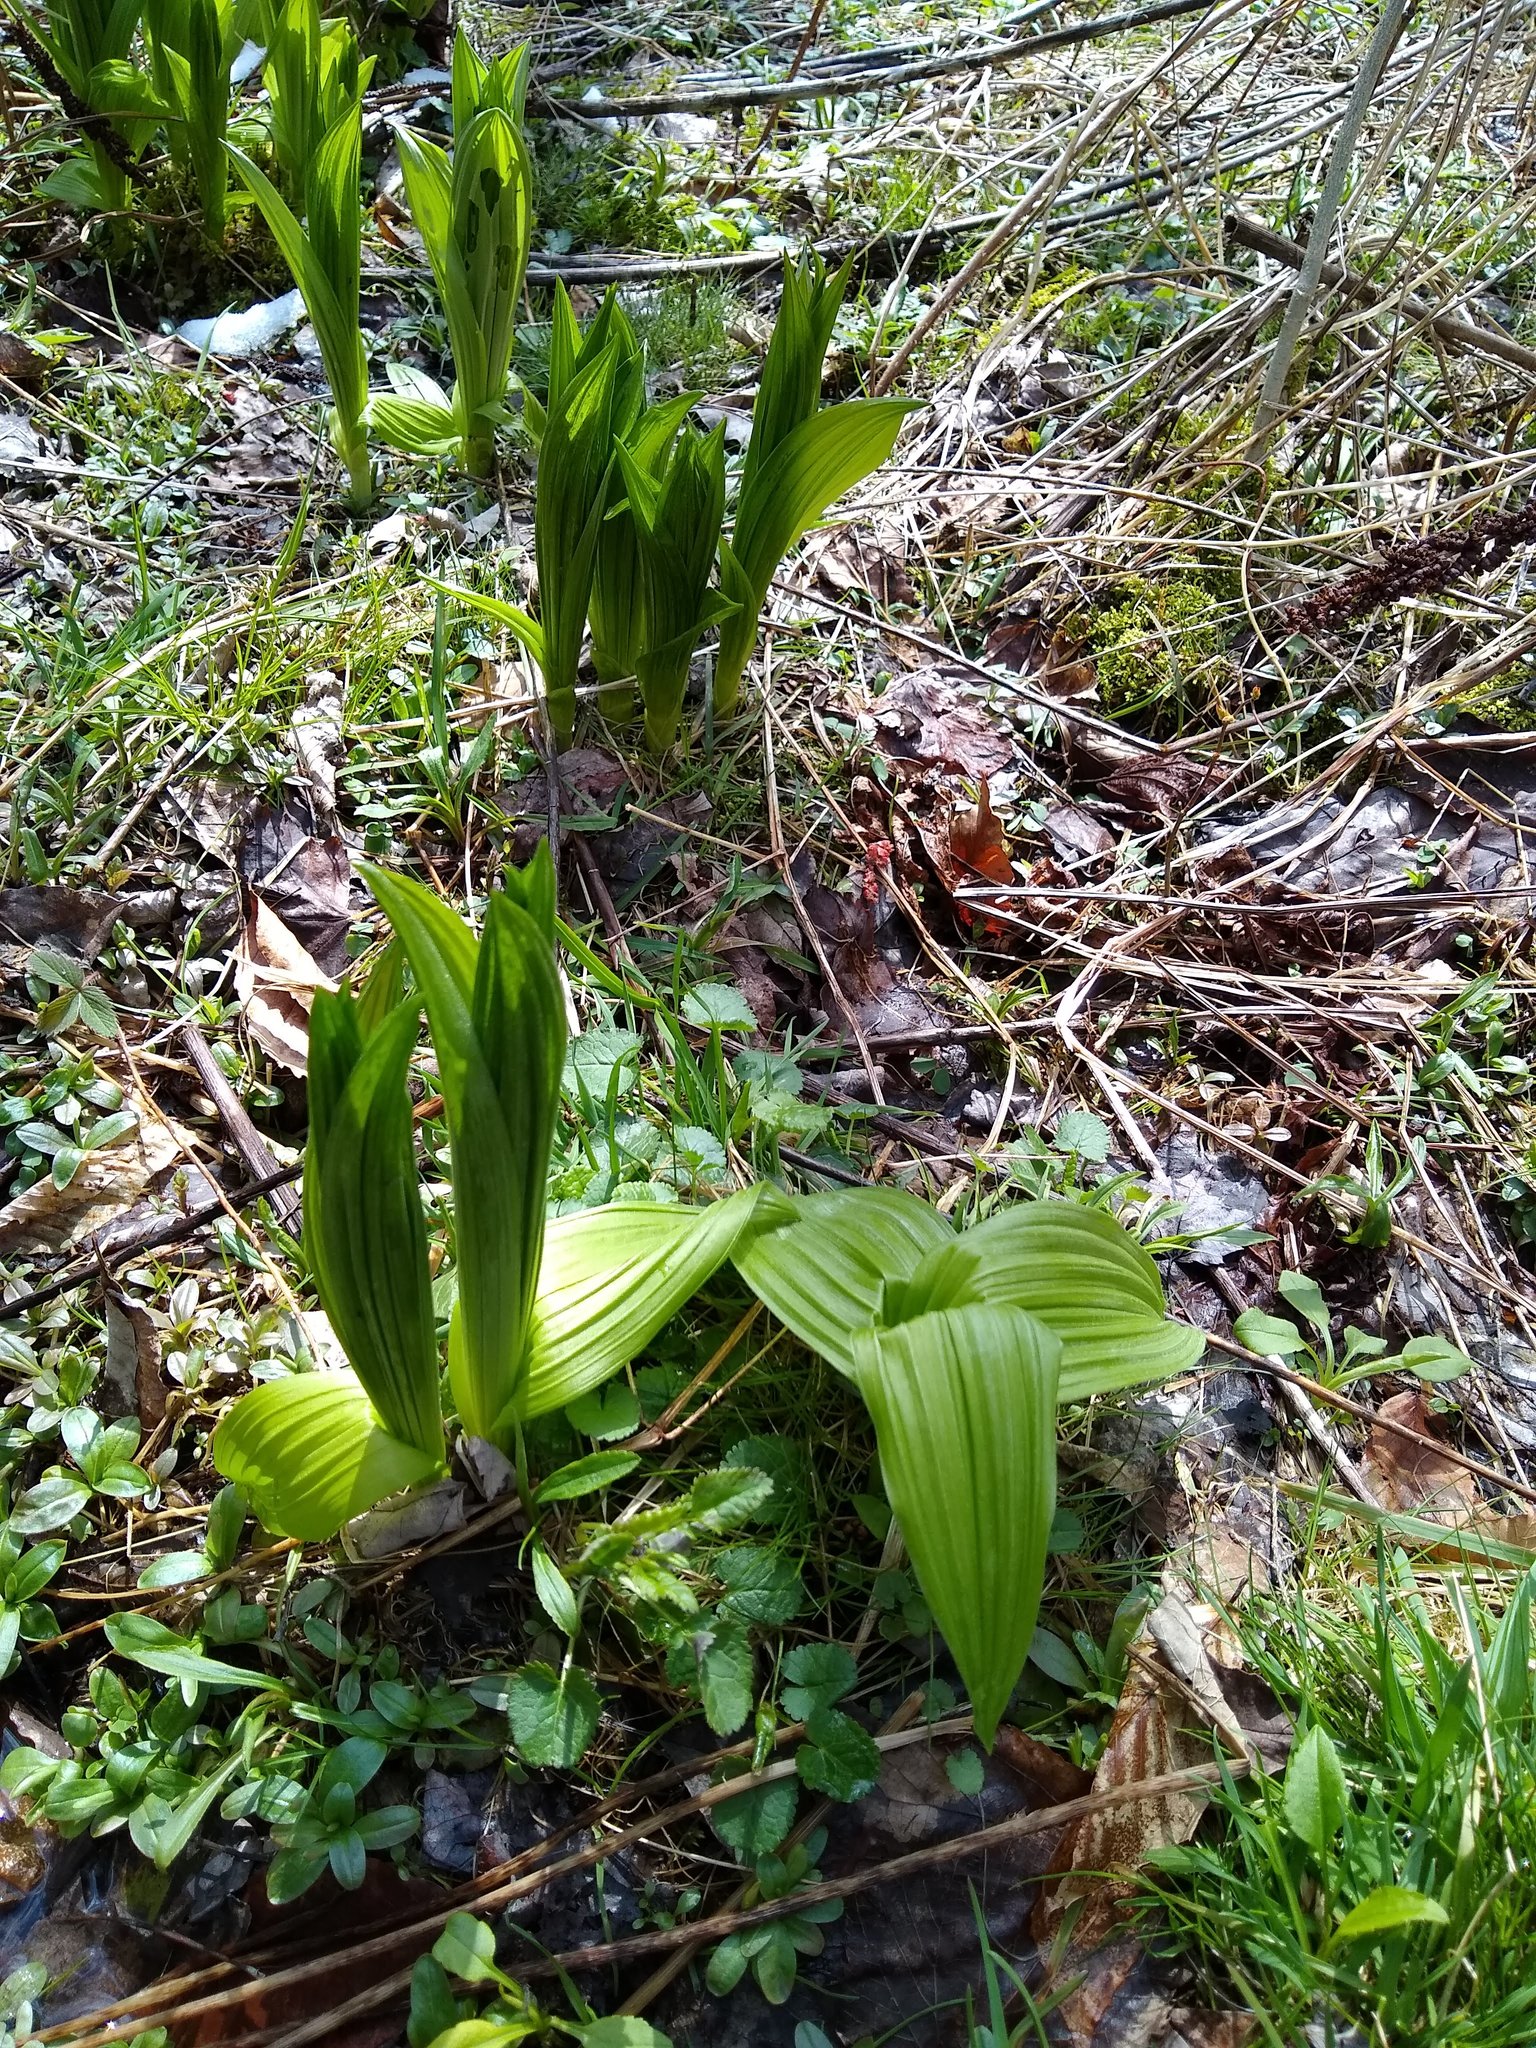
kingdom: Plantae
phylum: Tracheophyta
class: Liliopsida
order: Liliales
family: Melanthiaceae
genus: Veratrum
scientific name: Veratrum viride
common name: American false hellebore
